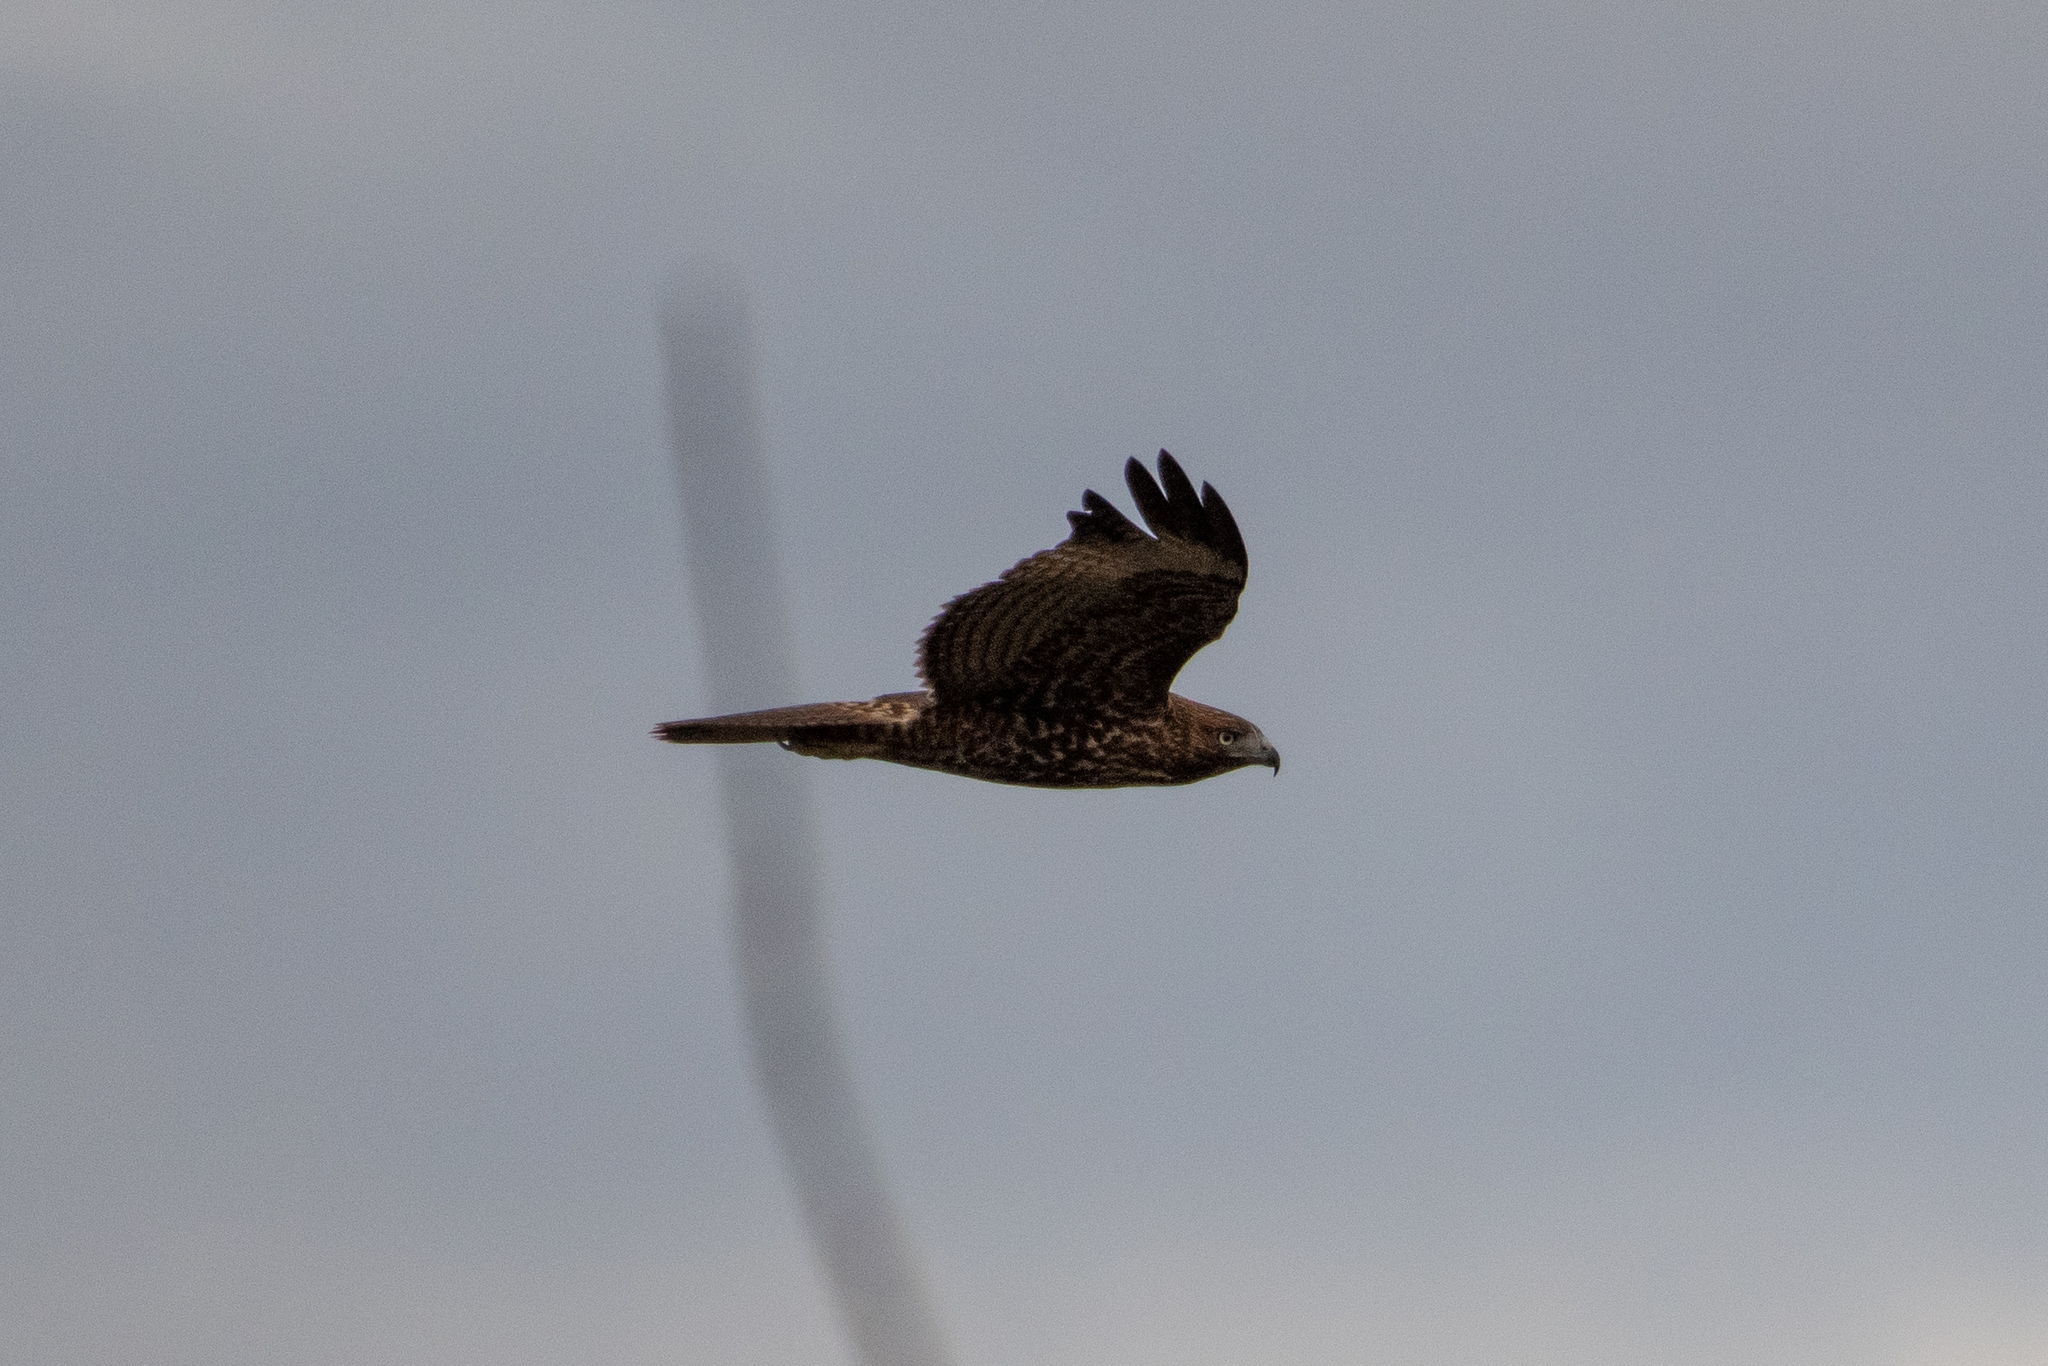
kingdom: Animalia
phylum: Chordata
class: Aves
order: Accipitriformes
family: Accipitridae
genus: Buteo
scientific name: Buteo jamaicensis
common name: Red-tailed hawk
